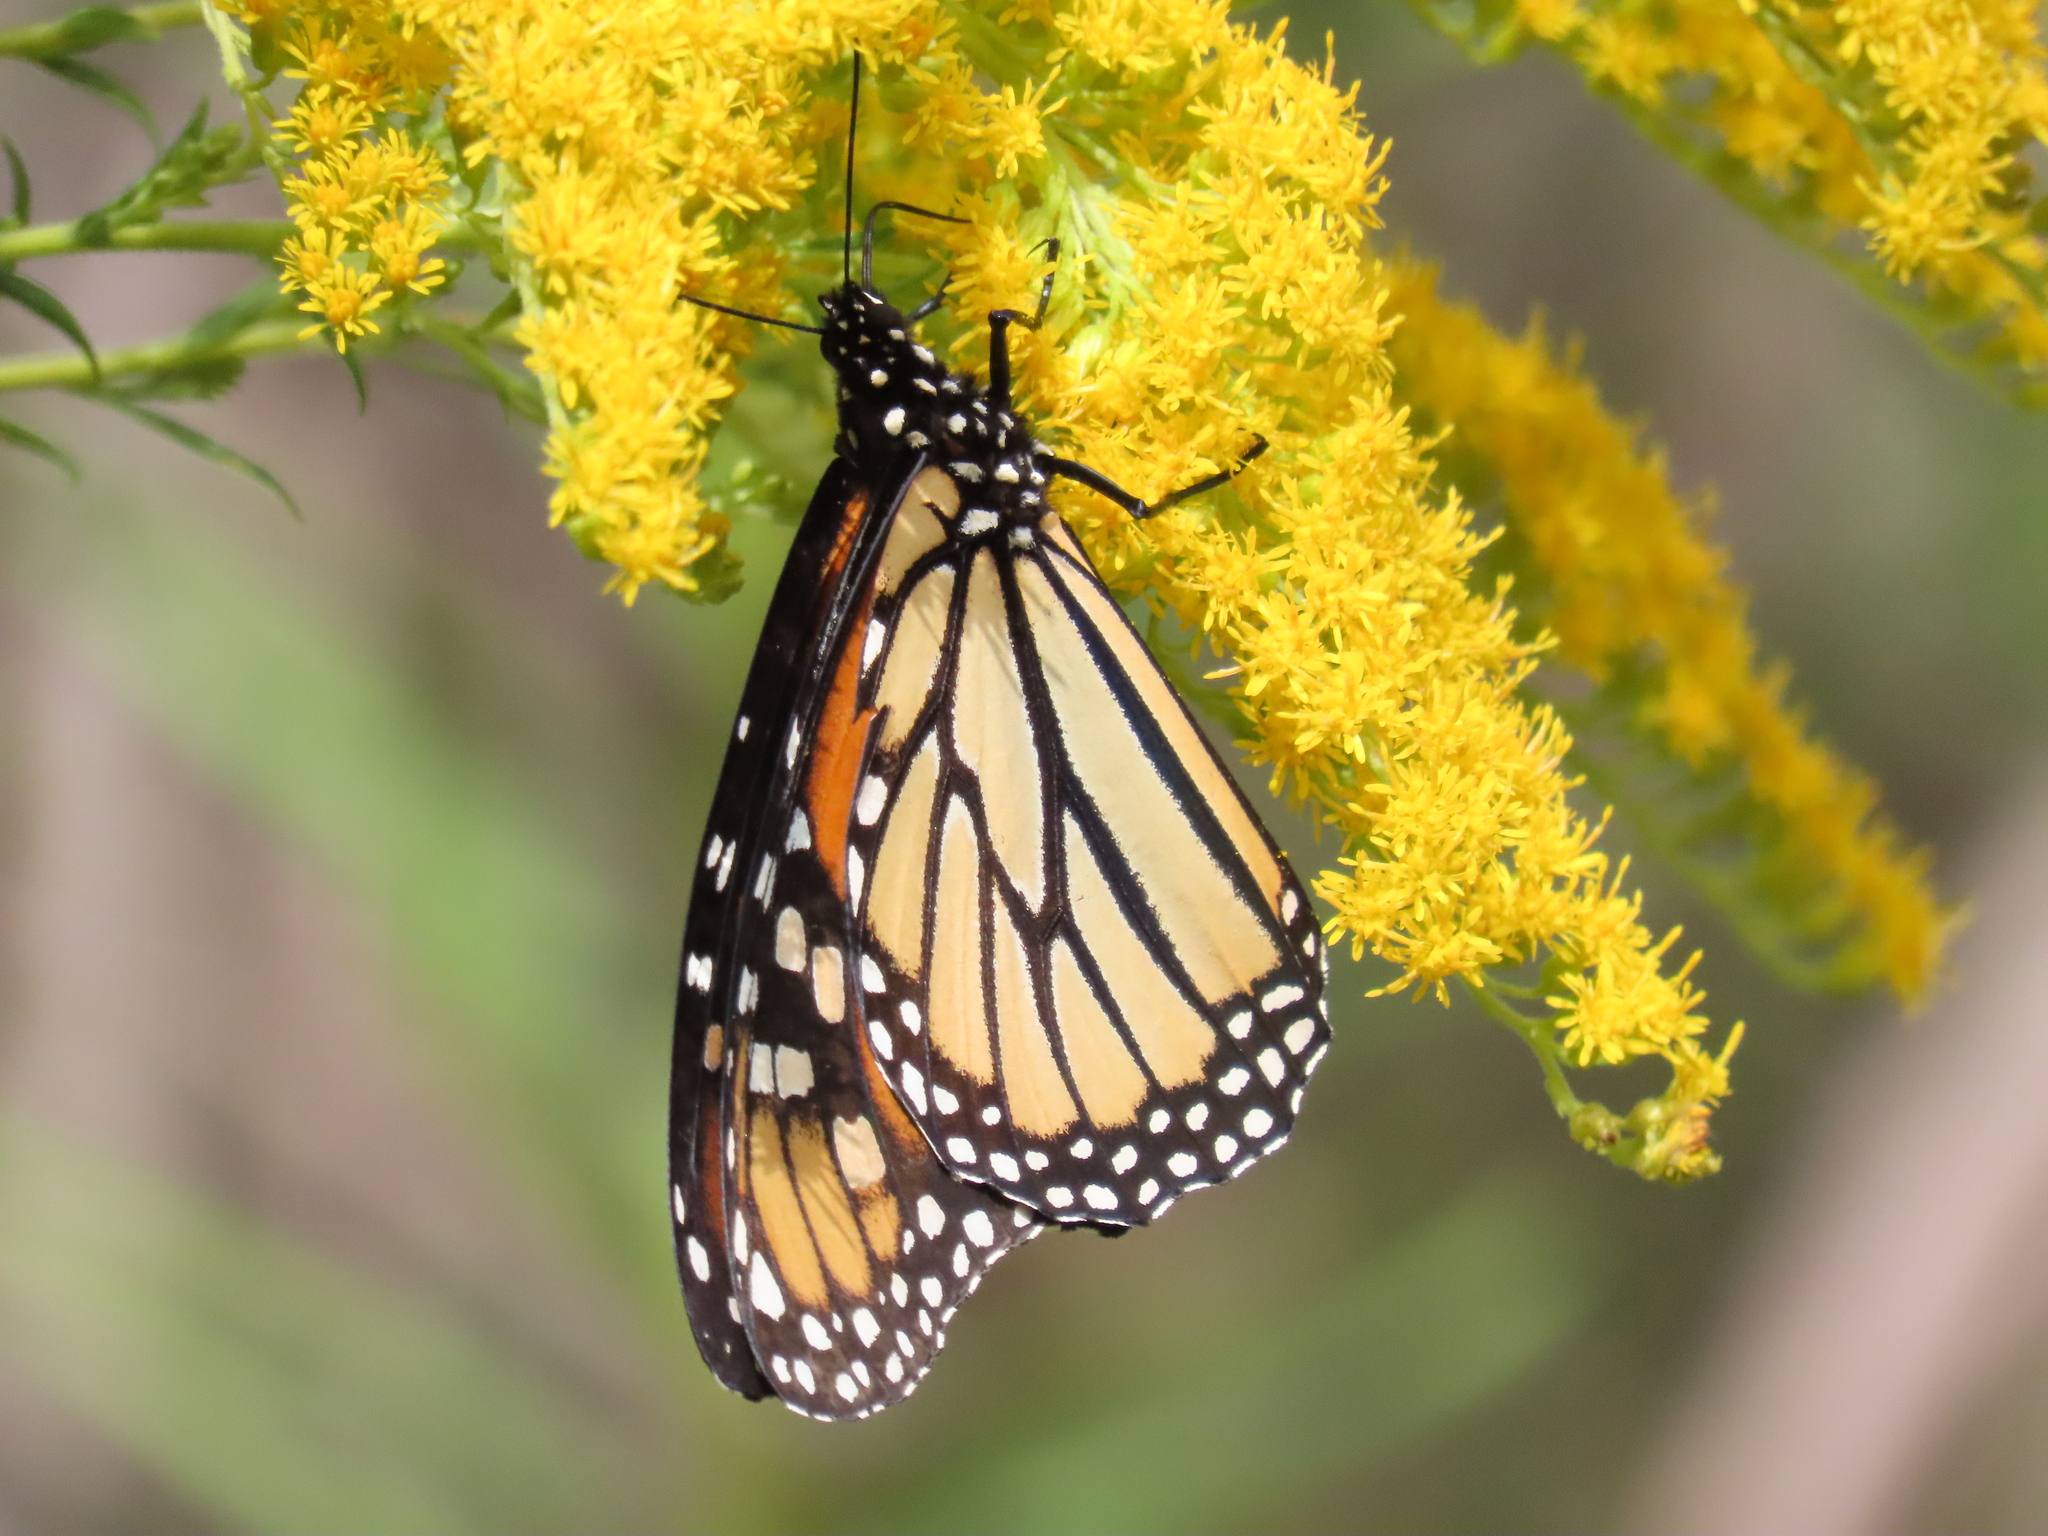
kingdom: Animalia
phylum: Arthropoda
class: Insecta
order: Lepidoptera
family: Nymphalidae
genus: Danaus
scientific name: Danaus plexippus
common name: Monarch
